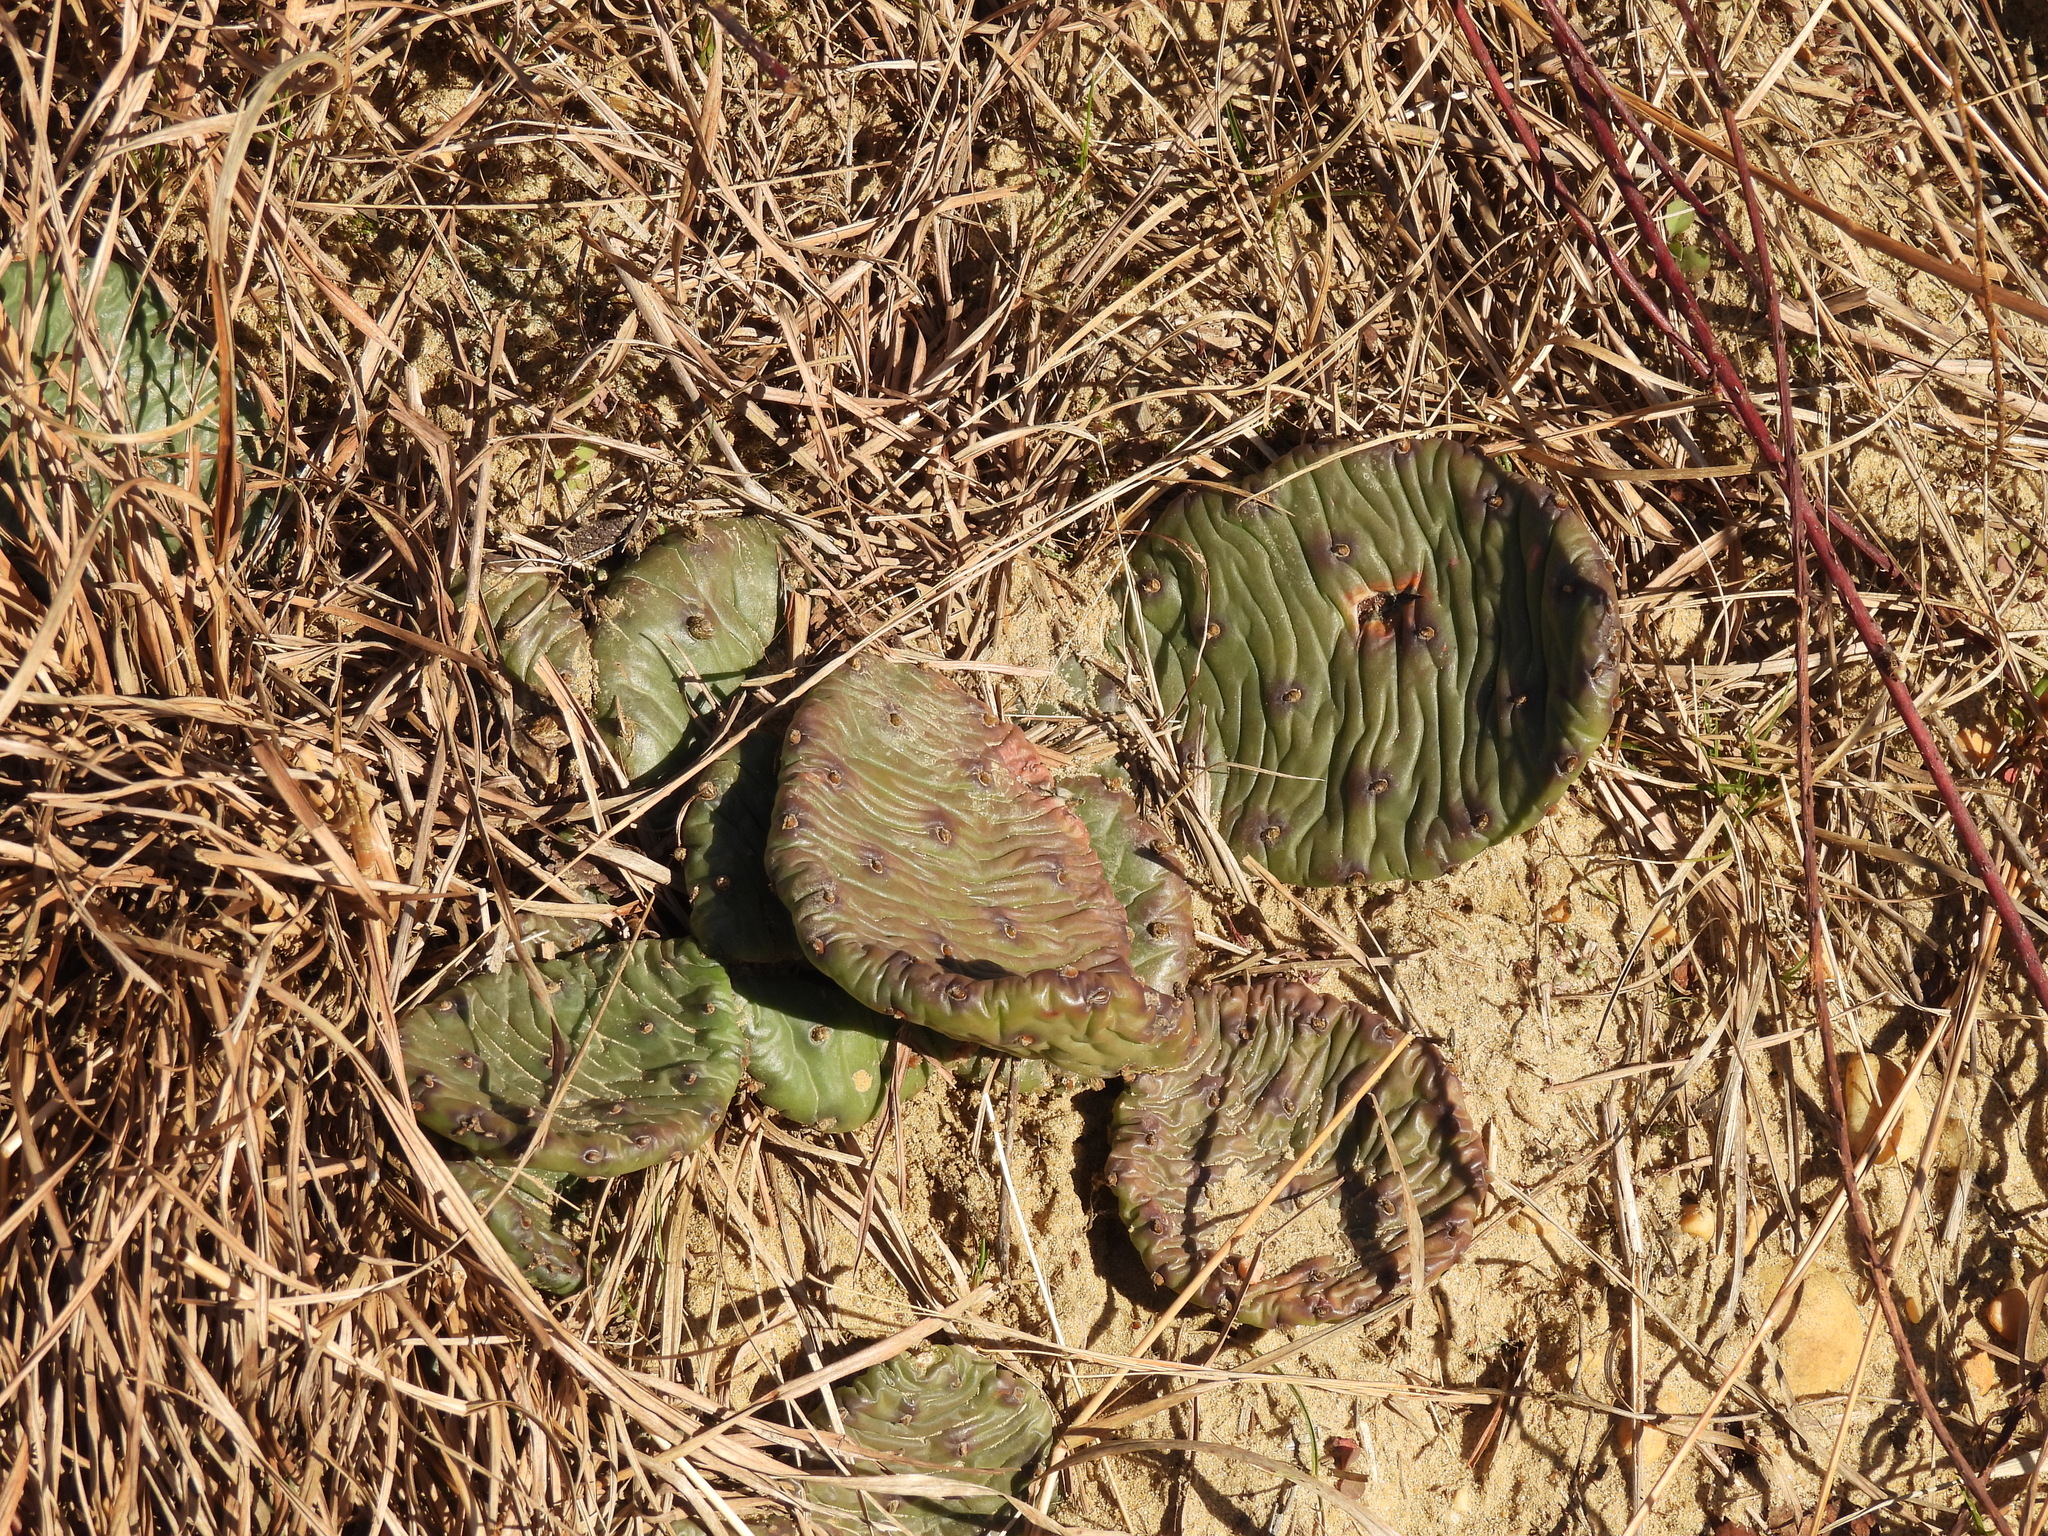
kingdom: Plantae
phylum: Tracheophyta
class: Magnoliopsida
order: Caryophyllales
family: Cactaceae
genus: Opuntia
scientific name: Opuntia humifusa
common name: Eastern prickly-pear
